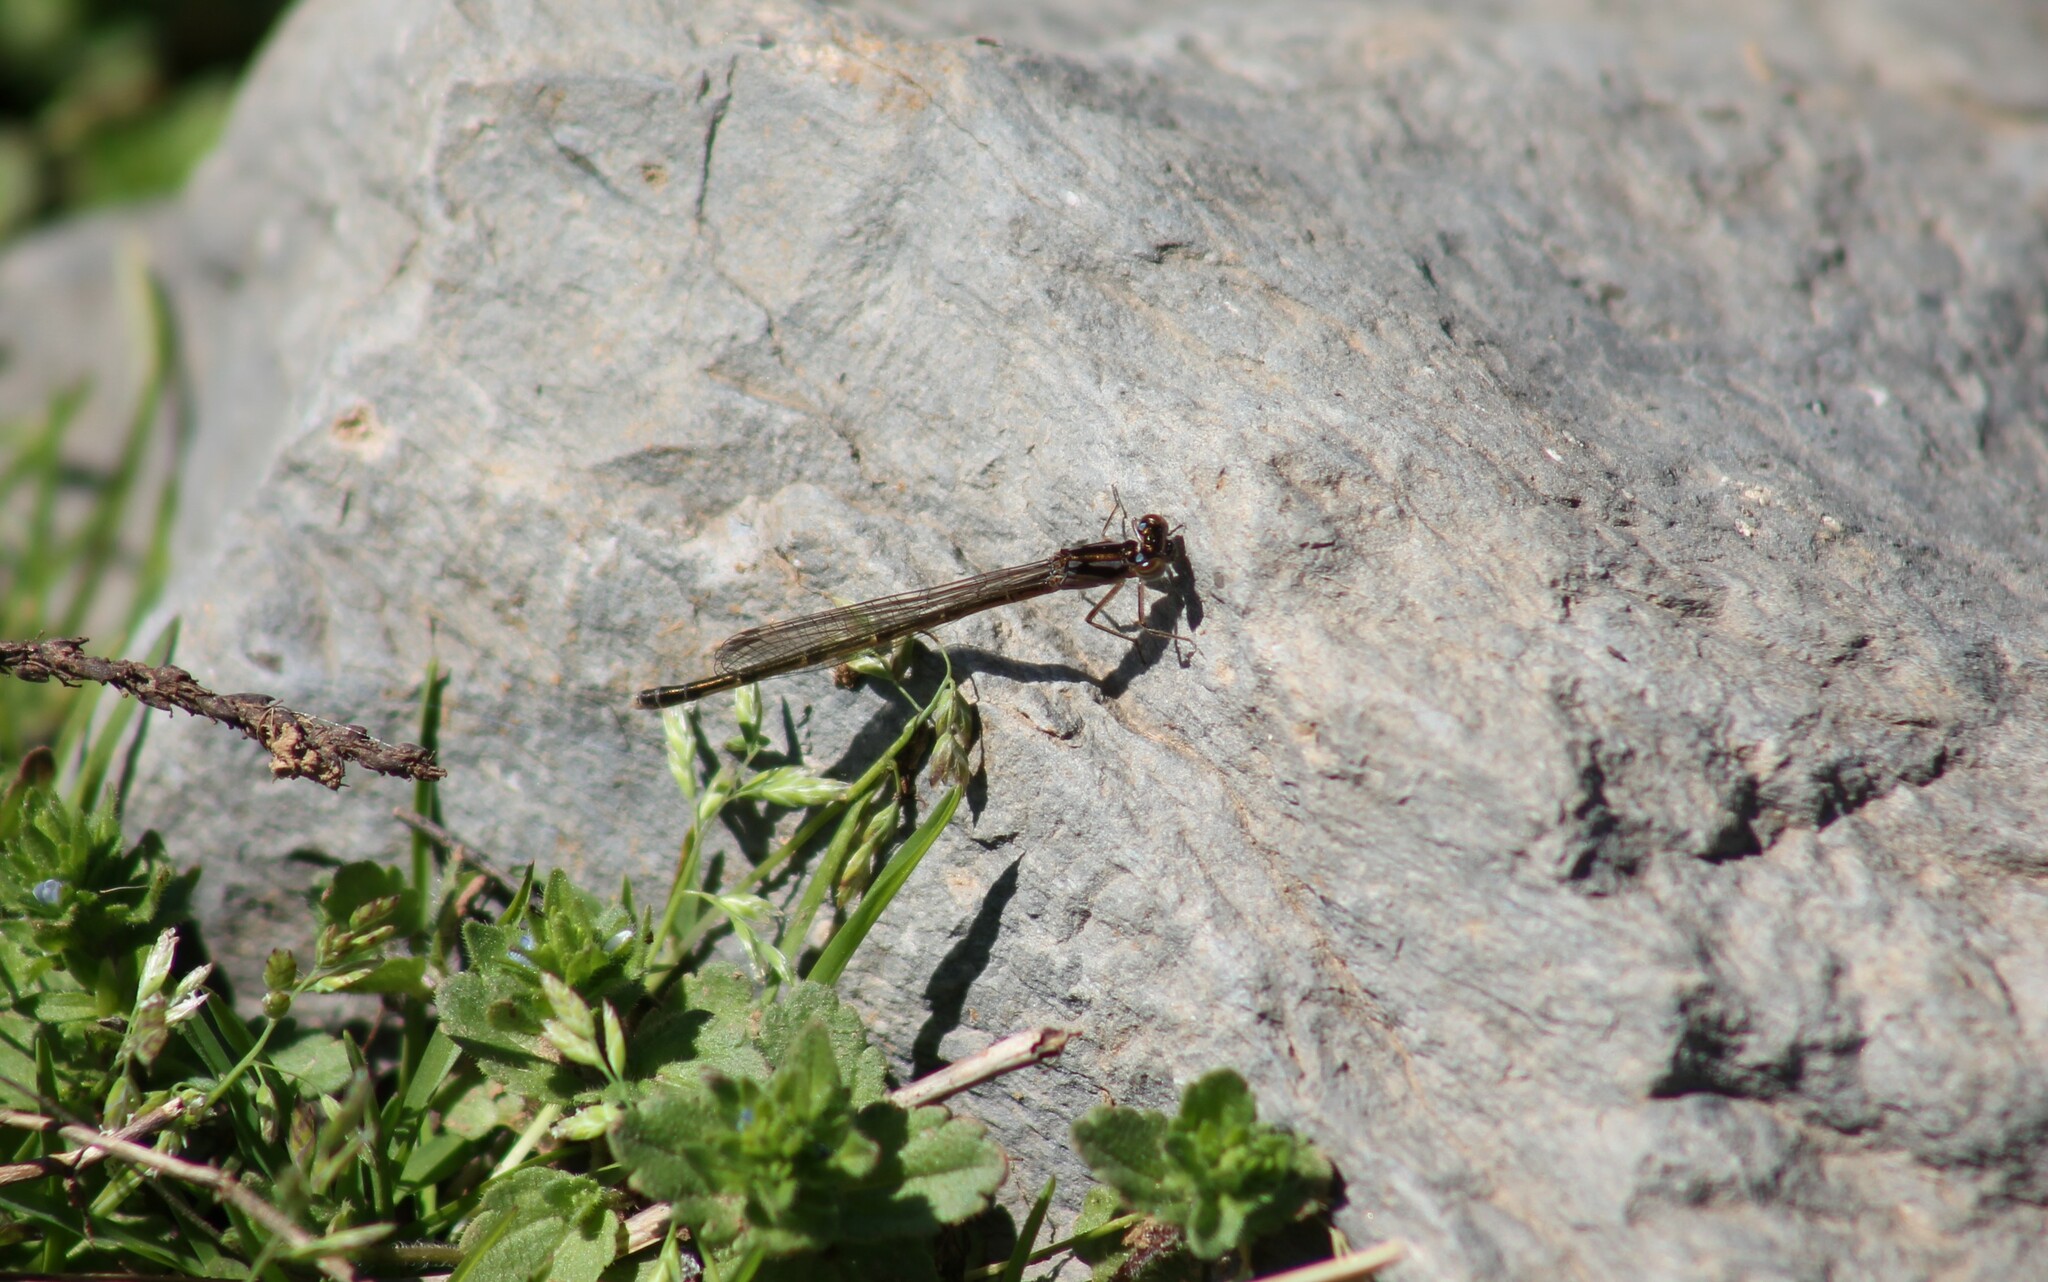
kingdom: Animalia
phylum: Arthropoda
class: Insecta
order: Odonata
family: Coenagrionidae
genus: Ischnura
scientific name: Ischnura posita
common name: Fragile forktail
